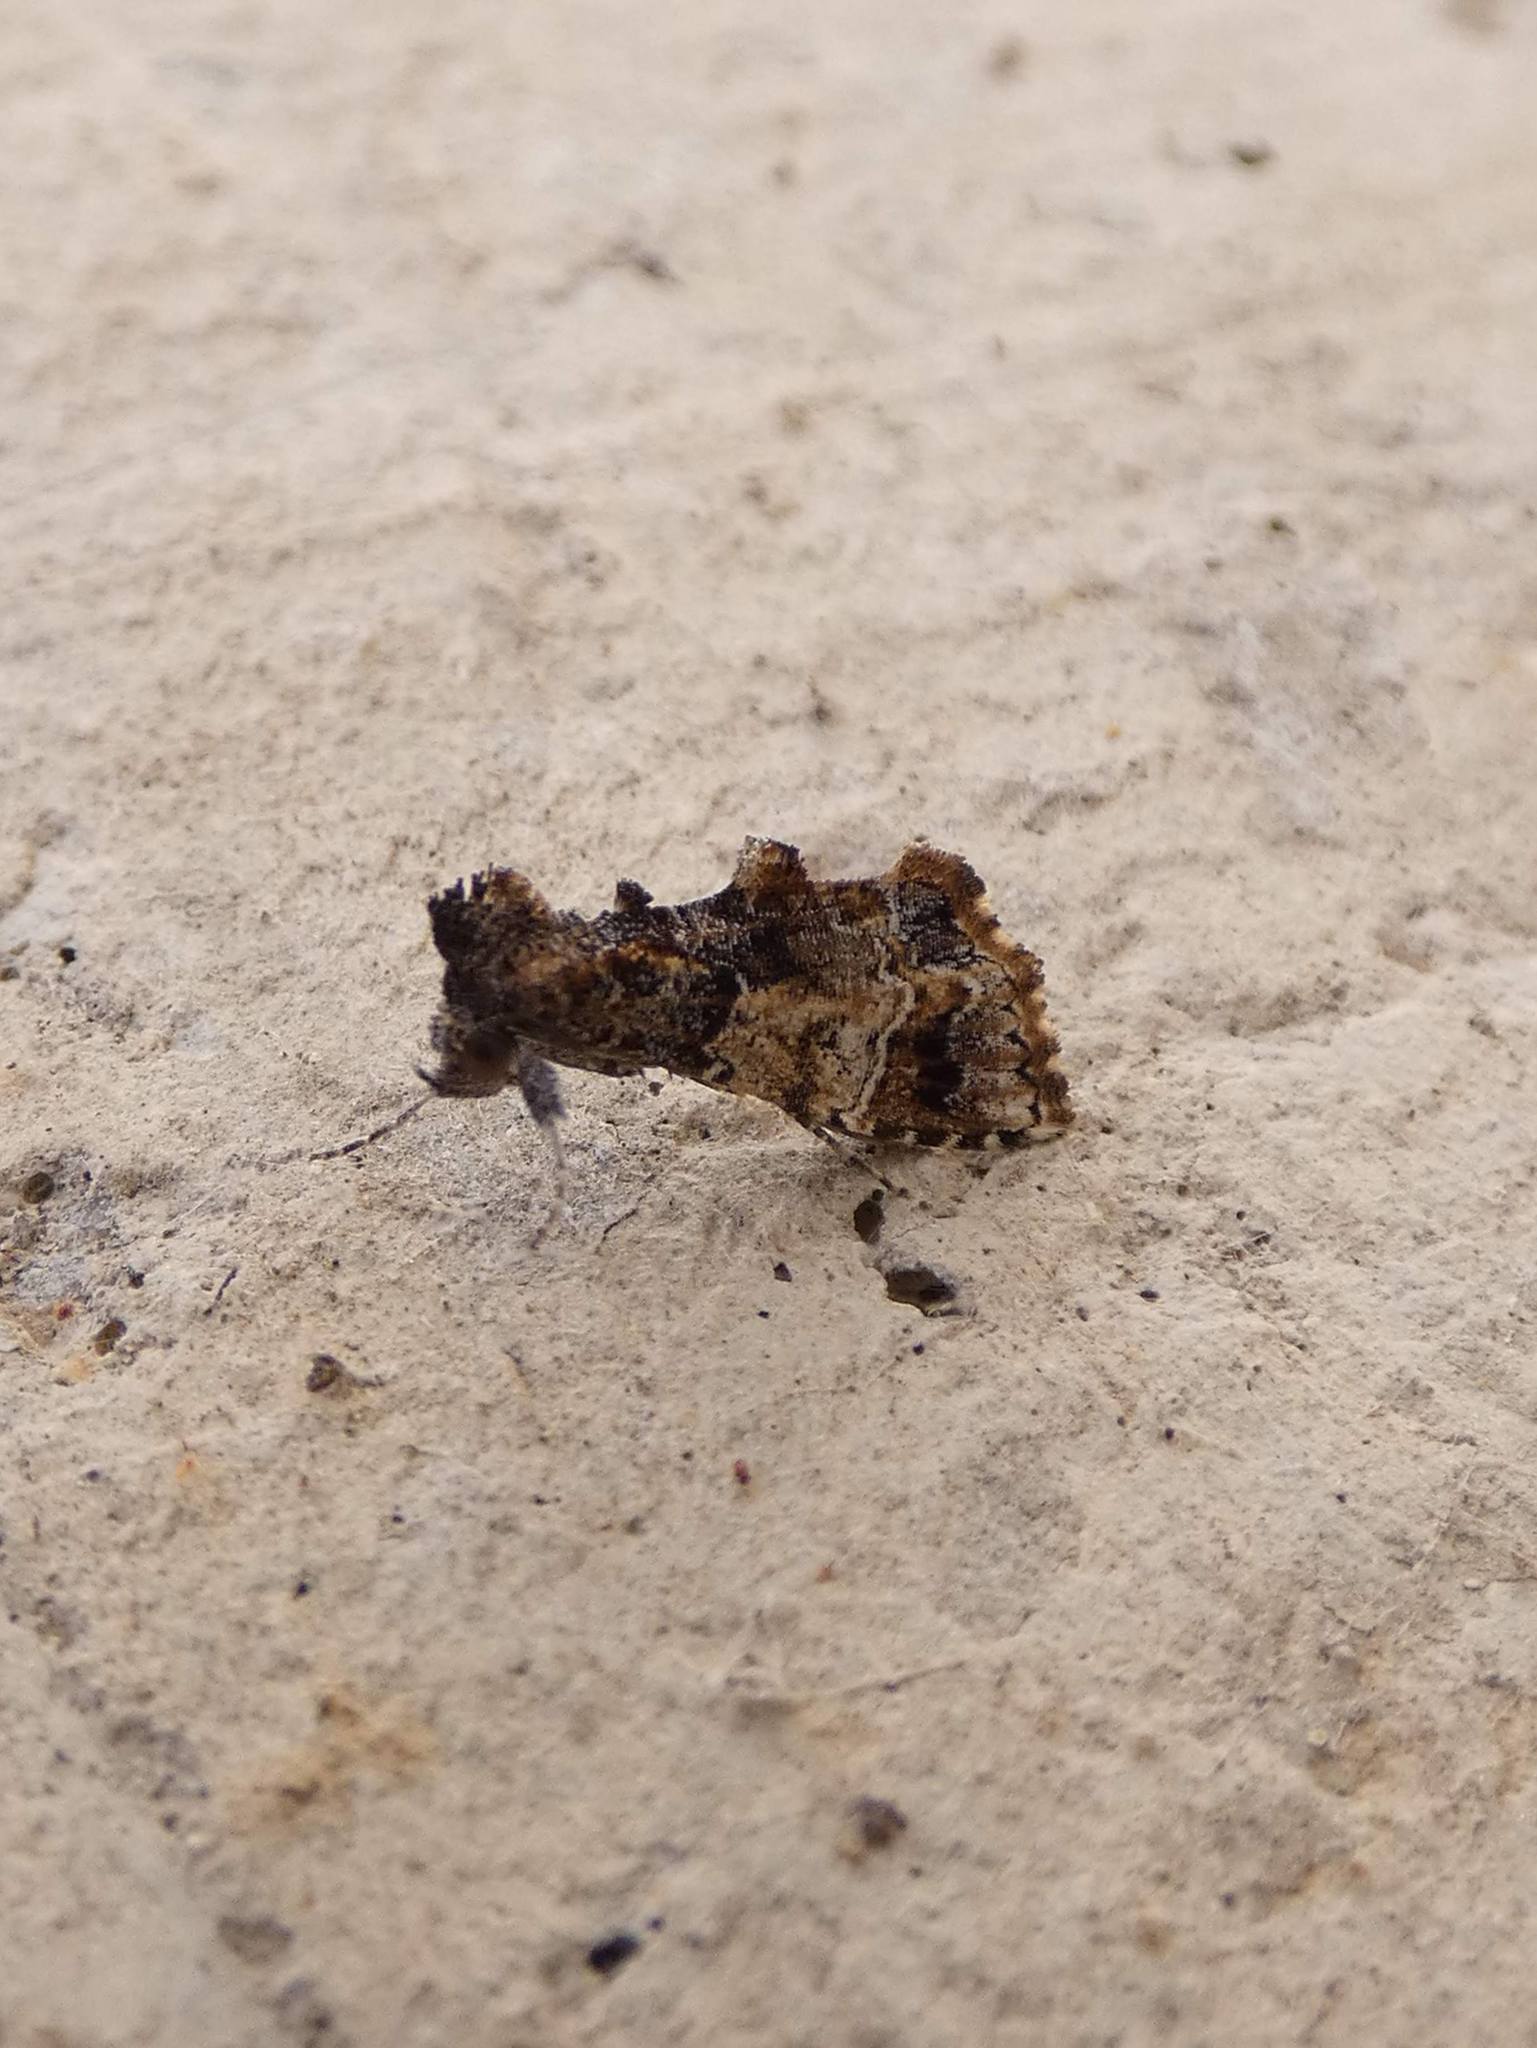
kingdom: Animalia
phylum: Arthropoda
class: Insecta
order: Lepidoptera
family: Erebidae
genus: Arrade
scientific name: Arrade destituta
